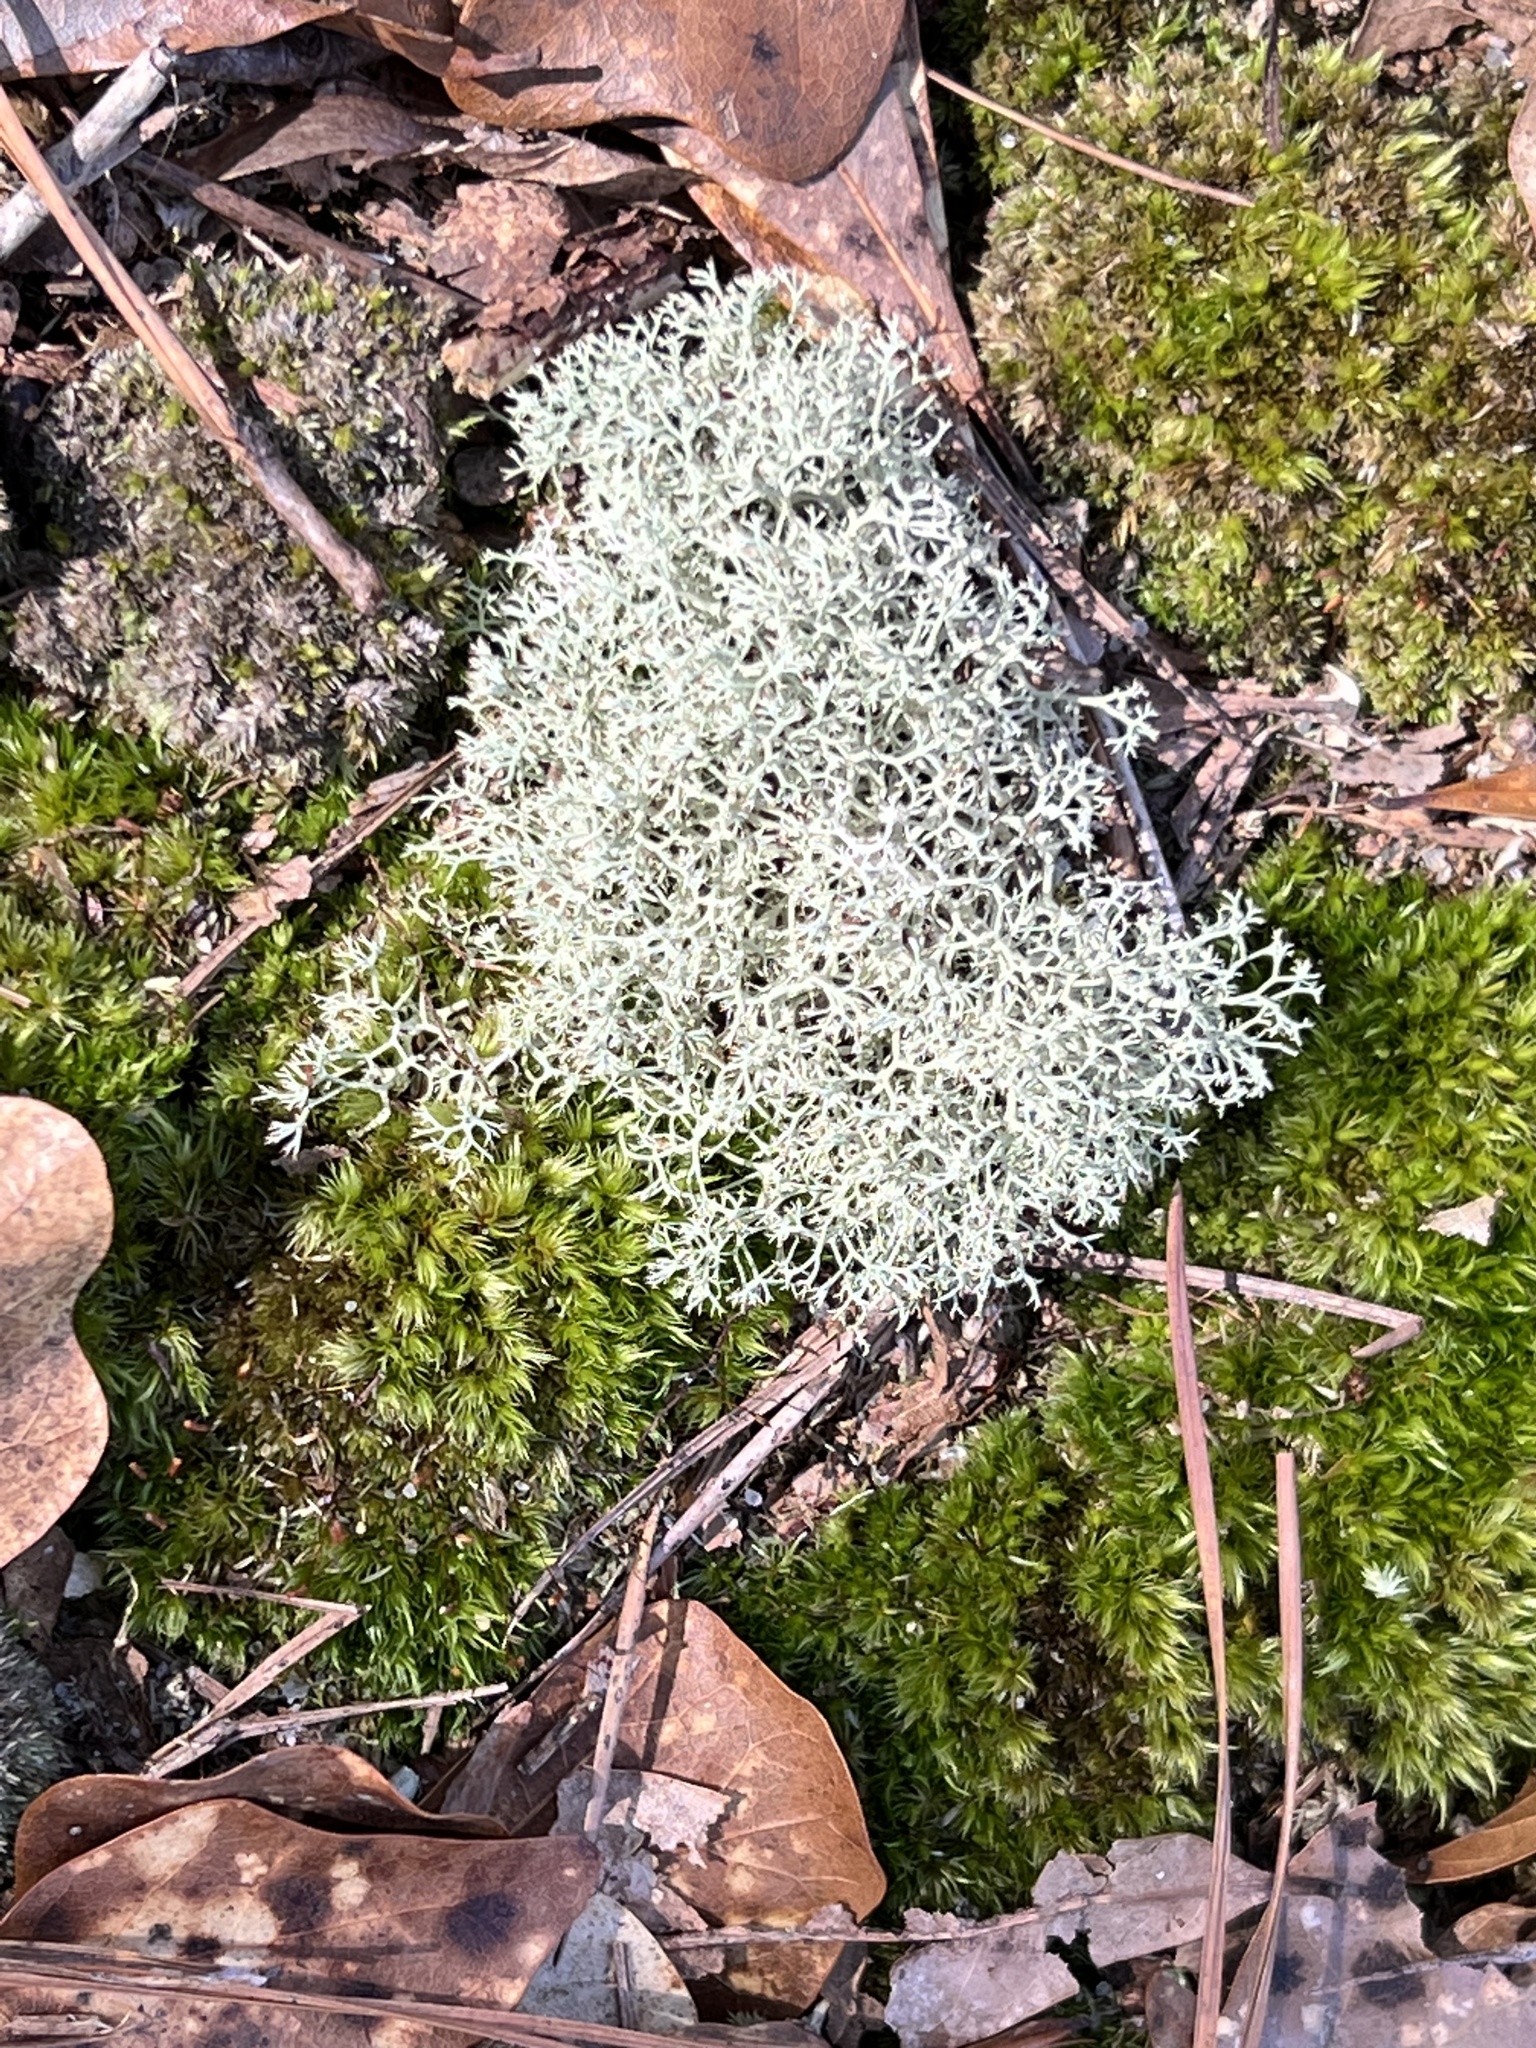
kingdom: Fungi
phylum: Ascomycota
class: Lecanoromycetes
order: Lecanorales
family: Cladoniaceae
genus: Cladonia
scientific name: Cladonia subtenuis
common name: Dixie reindeer lichen
